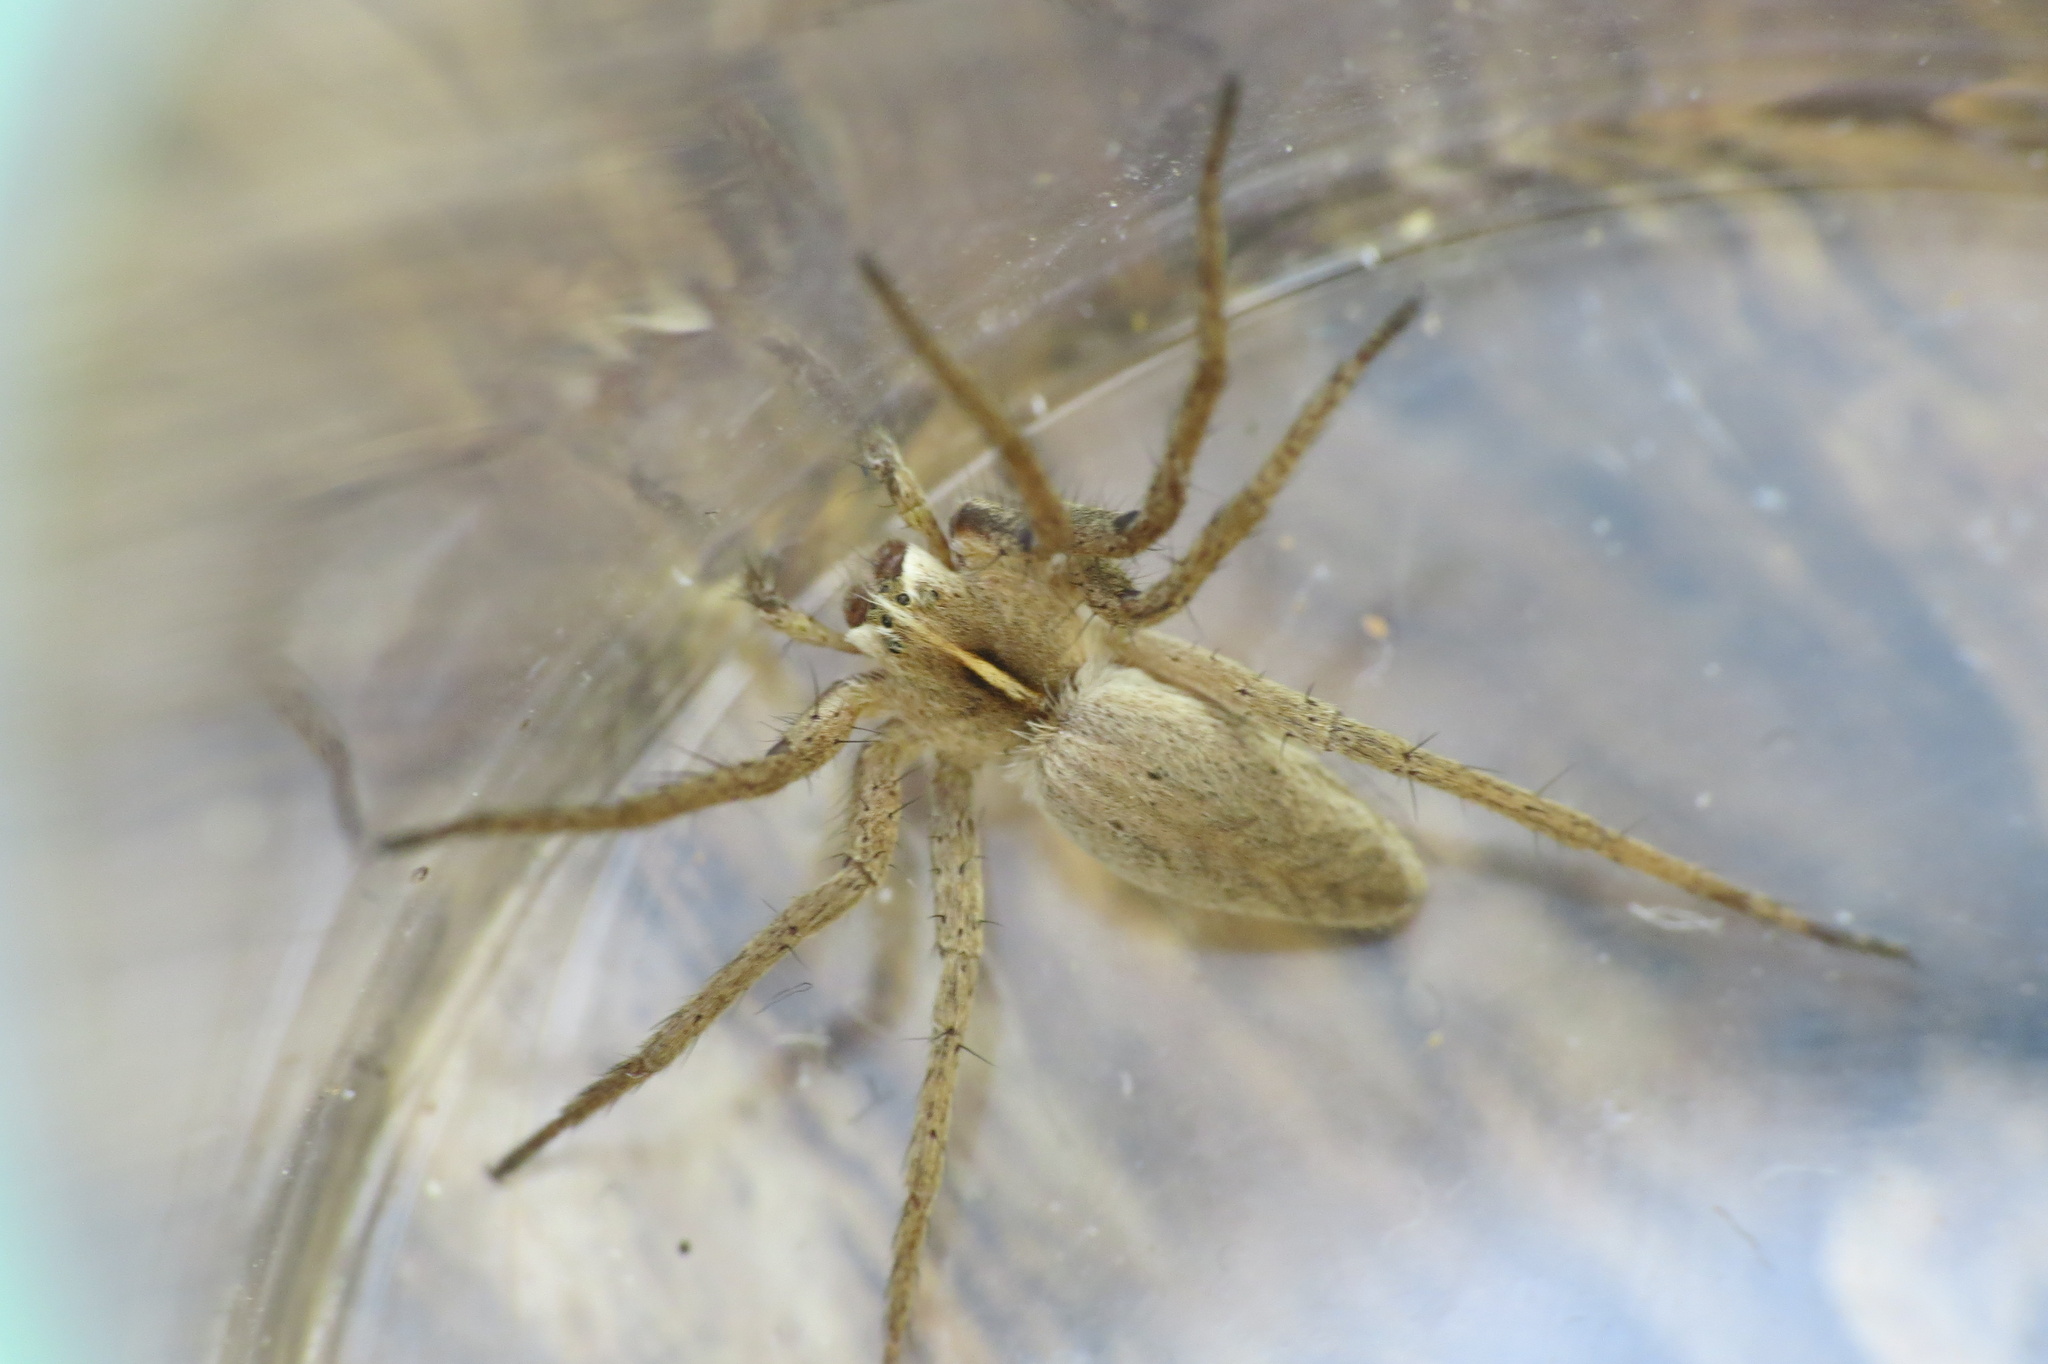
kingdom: Animalia
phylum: Arthropoda
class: Arachnida
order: Araneae
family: Pisauridae
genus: Pisaura
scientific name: Pisaura mirabilis
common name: Tent spider
